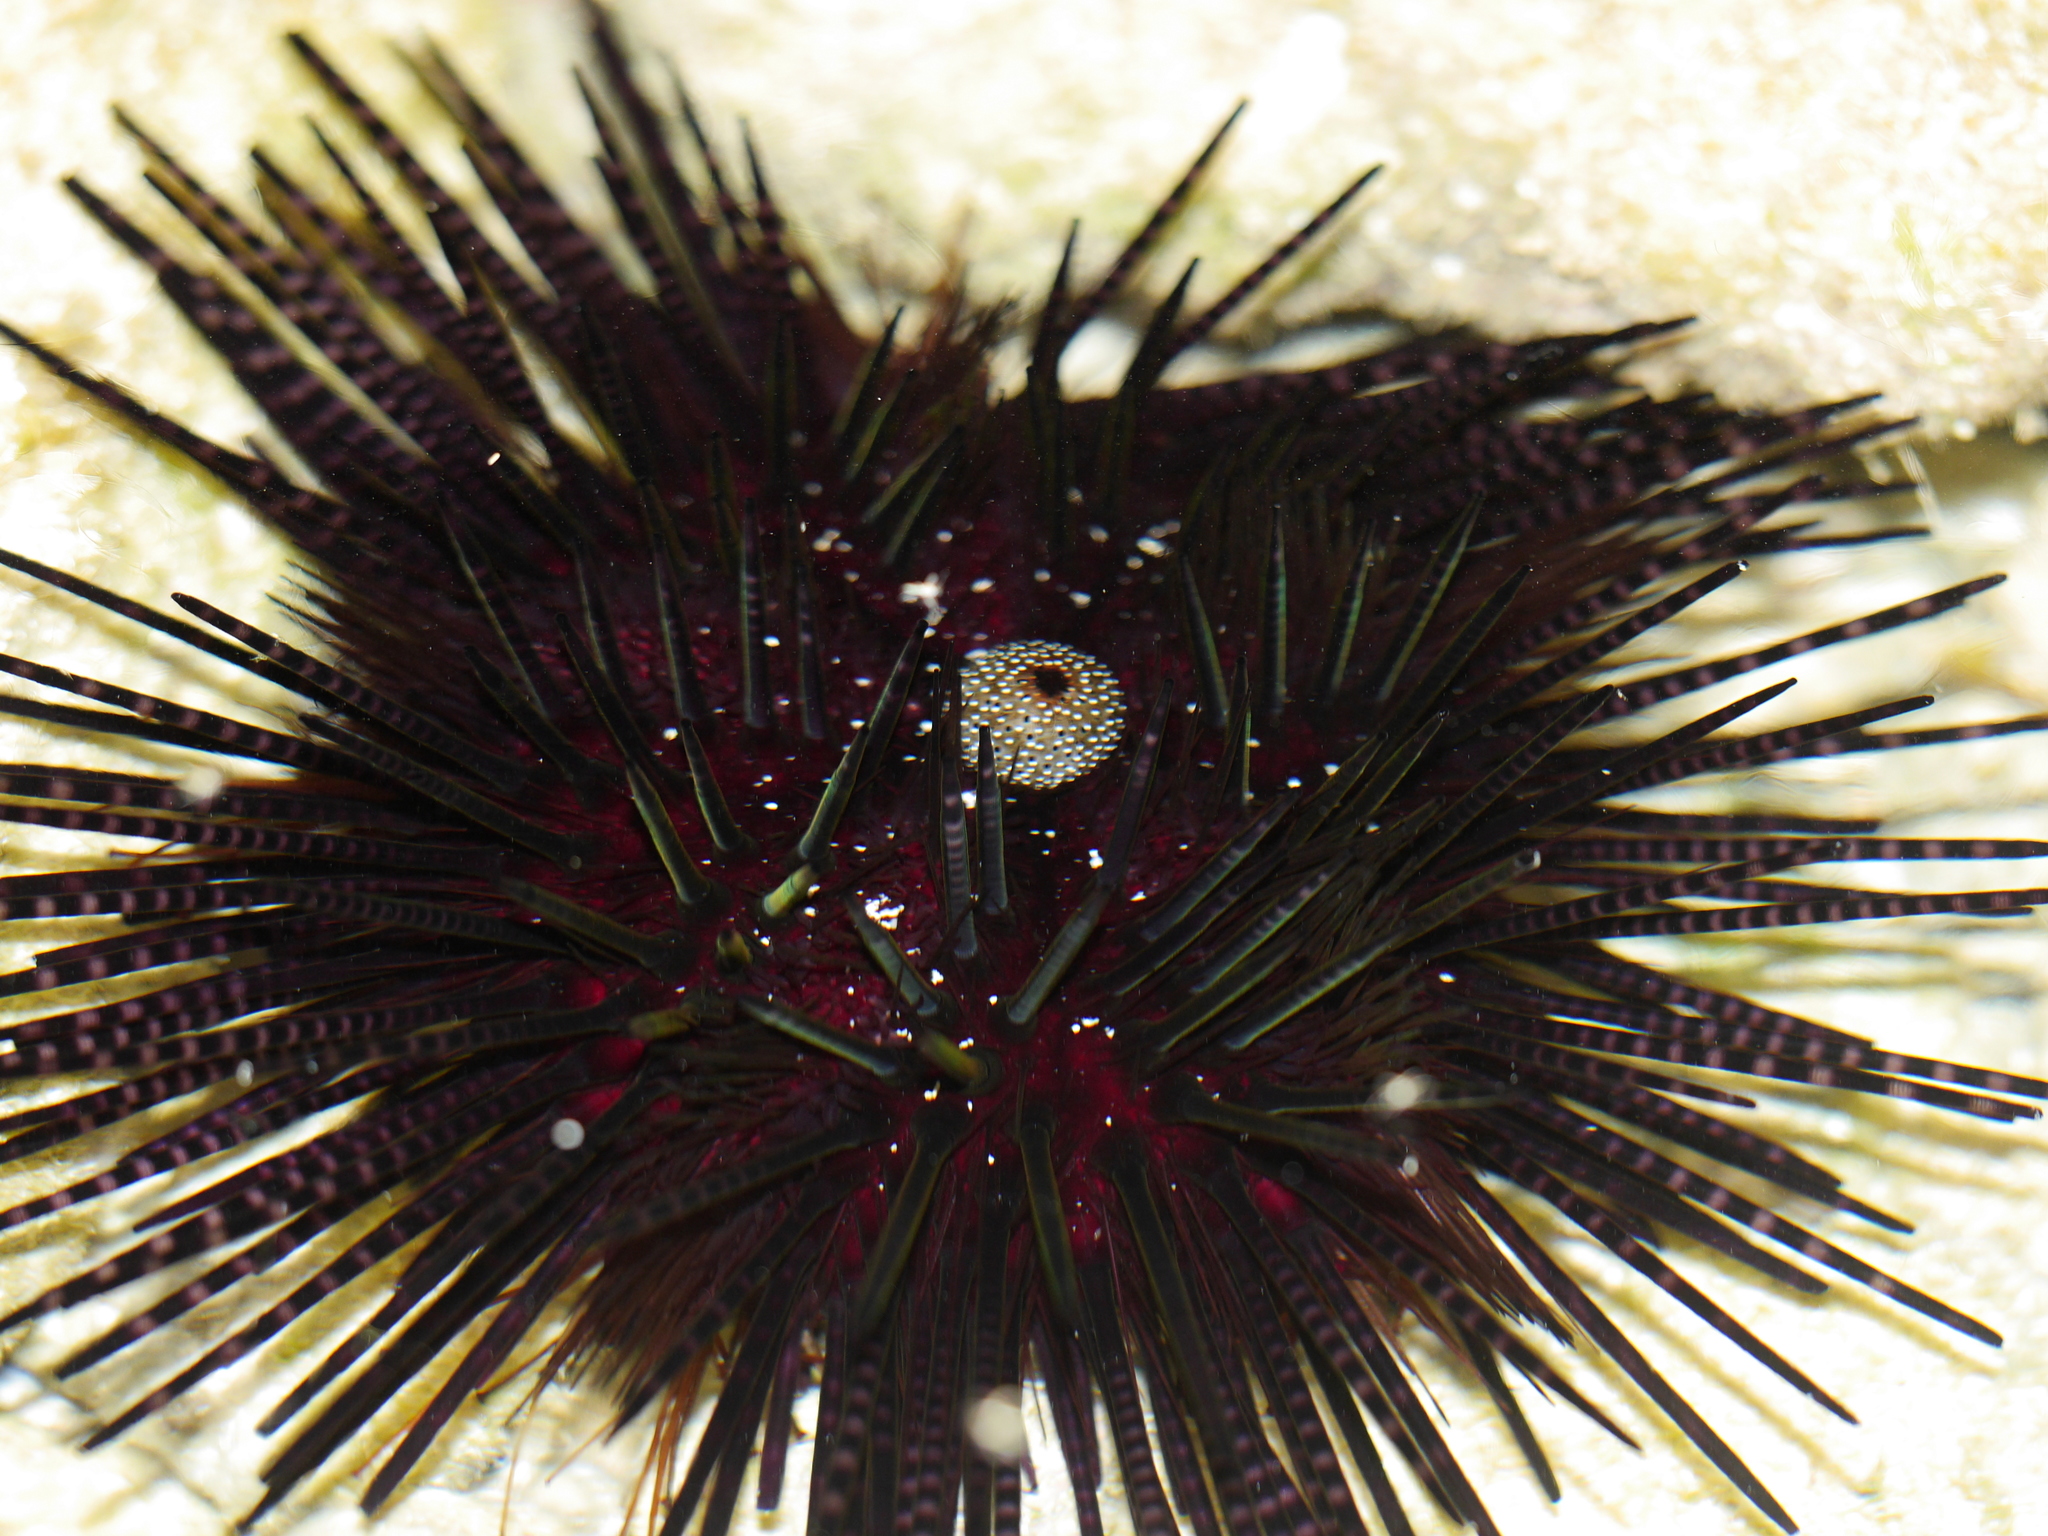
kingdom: Animalia
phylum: Echinodermata
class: Echinoidea
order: Diadematoida
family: Diadematidae
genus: Echinothrix
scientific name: Echinothrix calamaris
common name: Banded sea urchin
